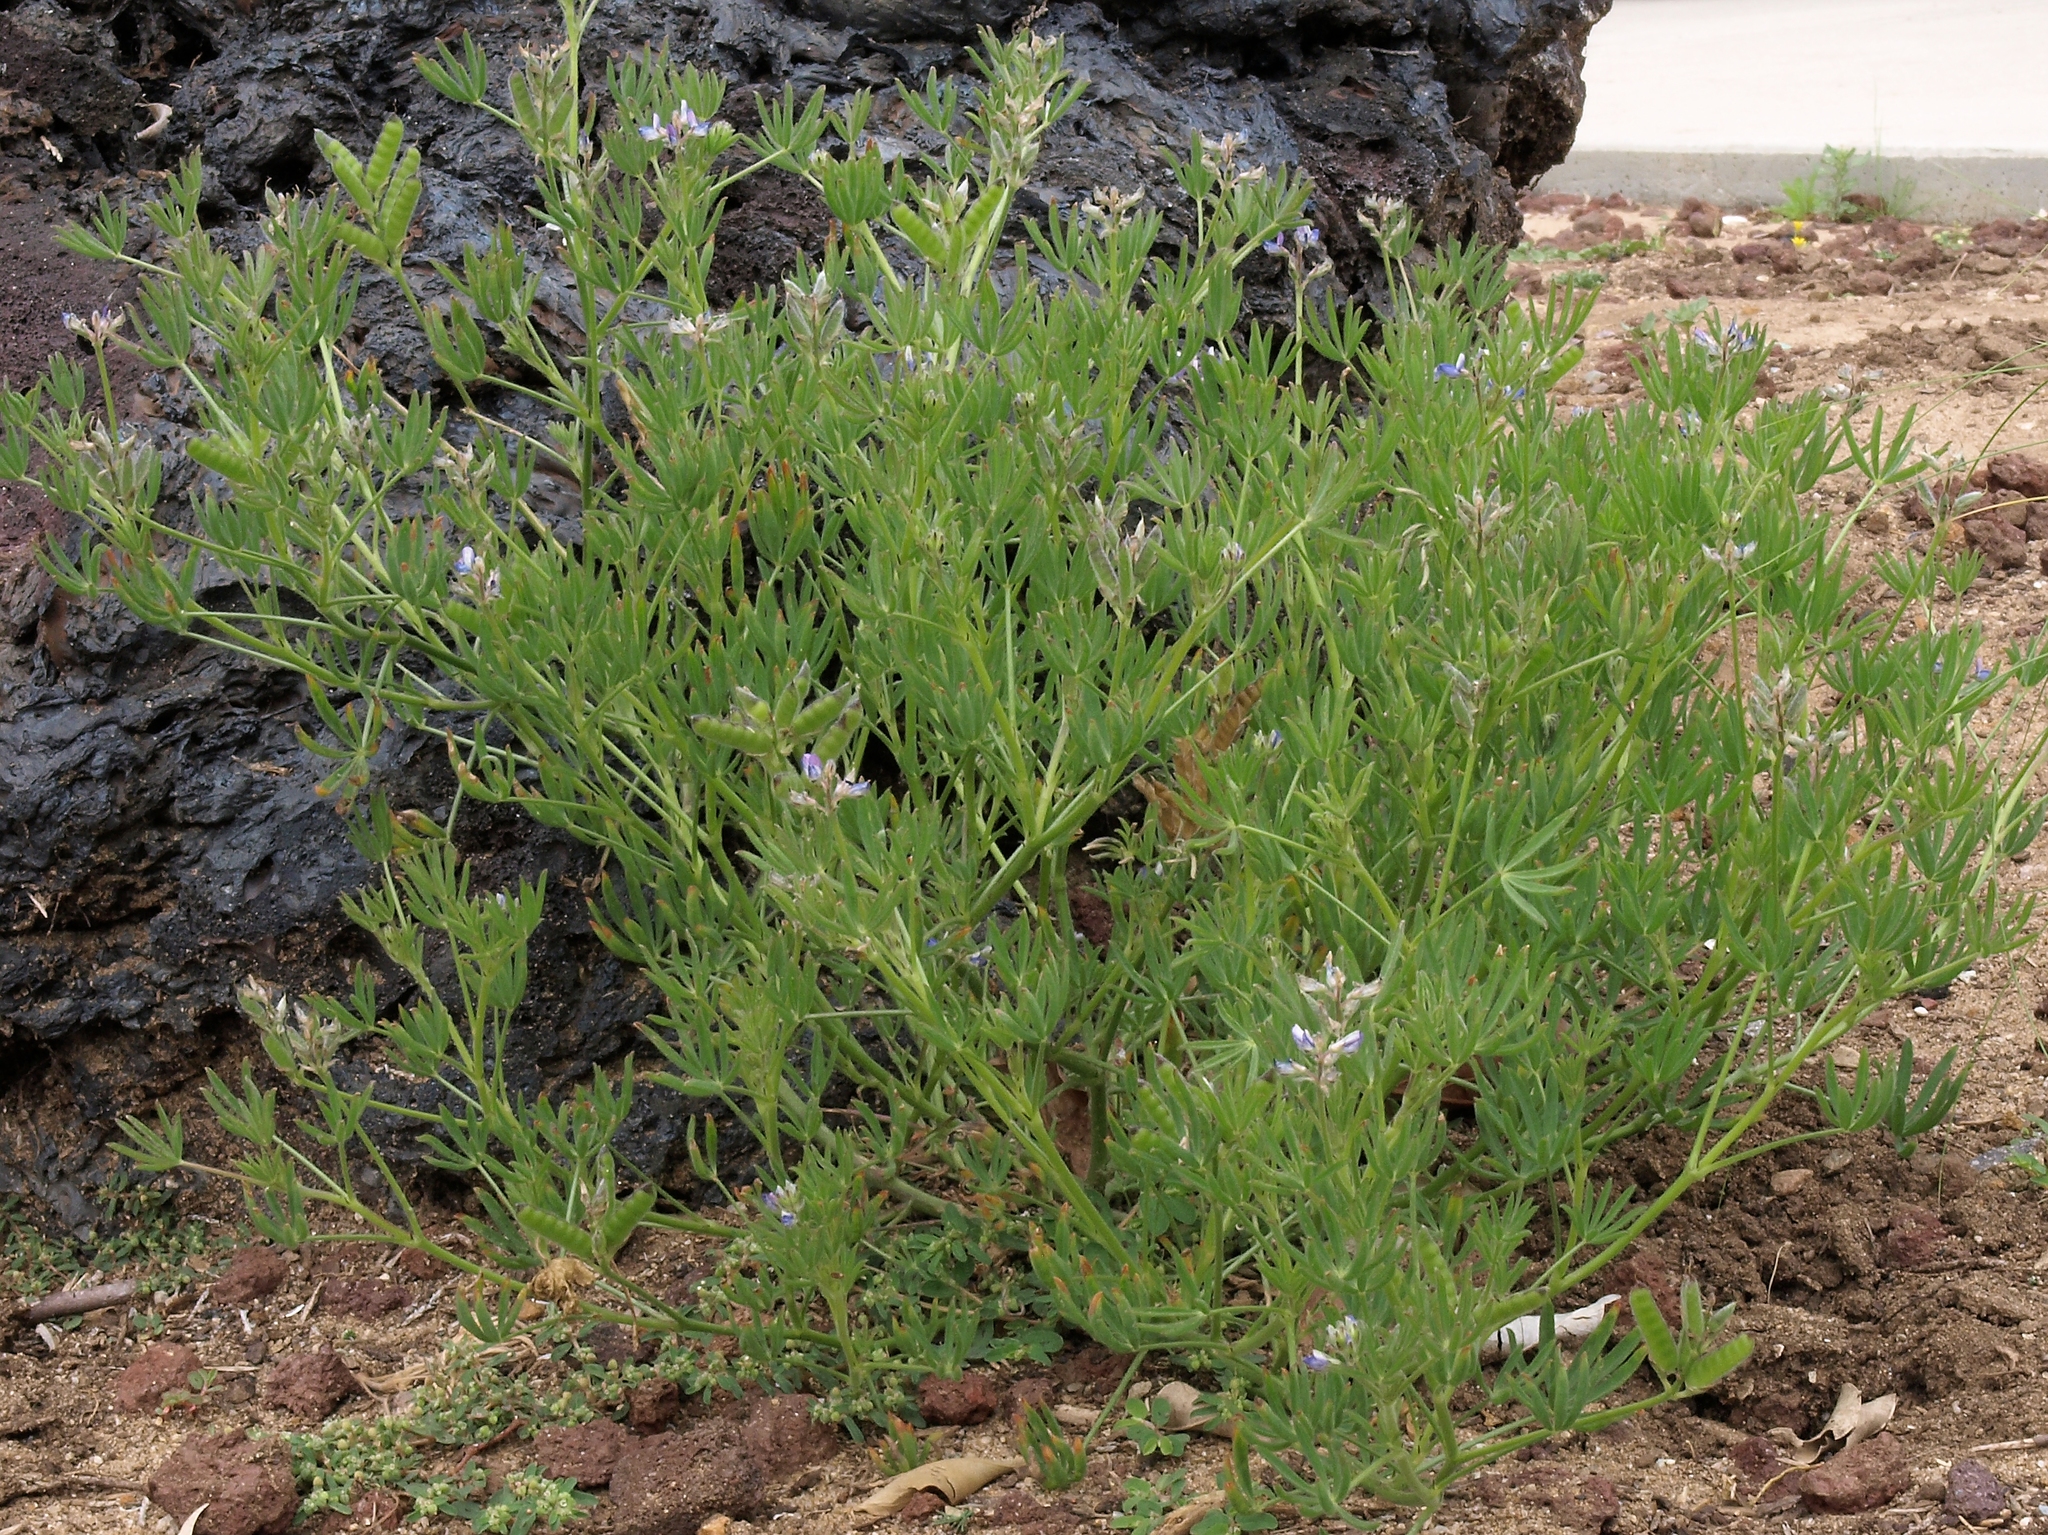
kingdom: Plantae
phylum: Tracheophyta
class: Magnoliopsida
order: Fabales
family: Fabaceae
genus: Lupinus
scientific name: Lupinus bicolor
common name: Miniature lupine
